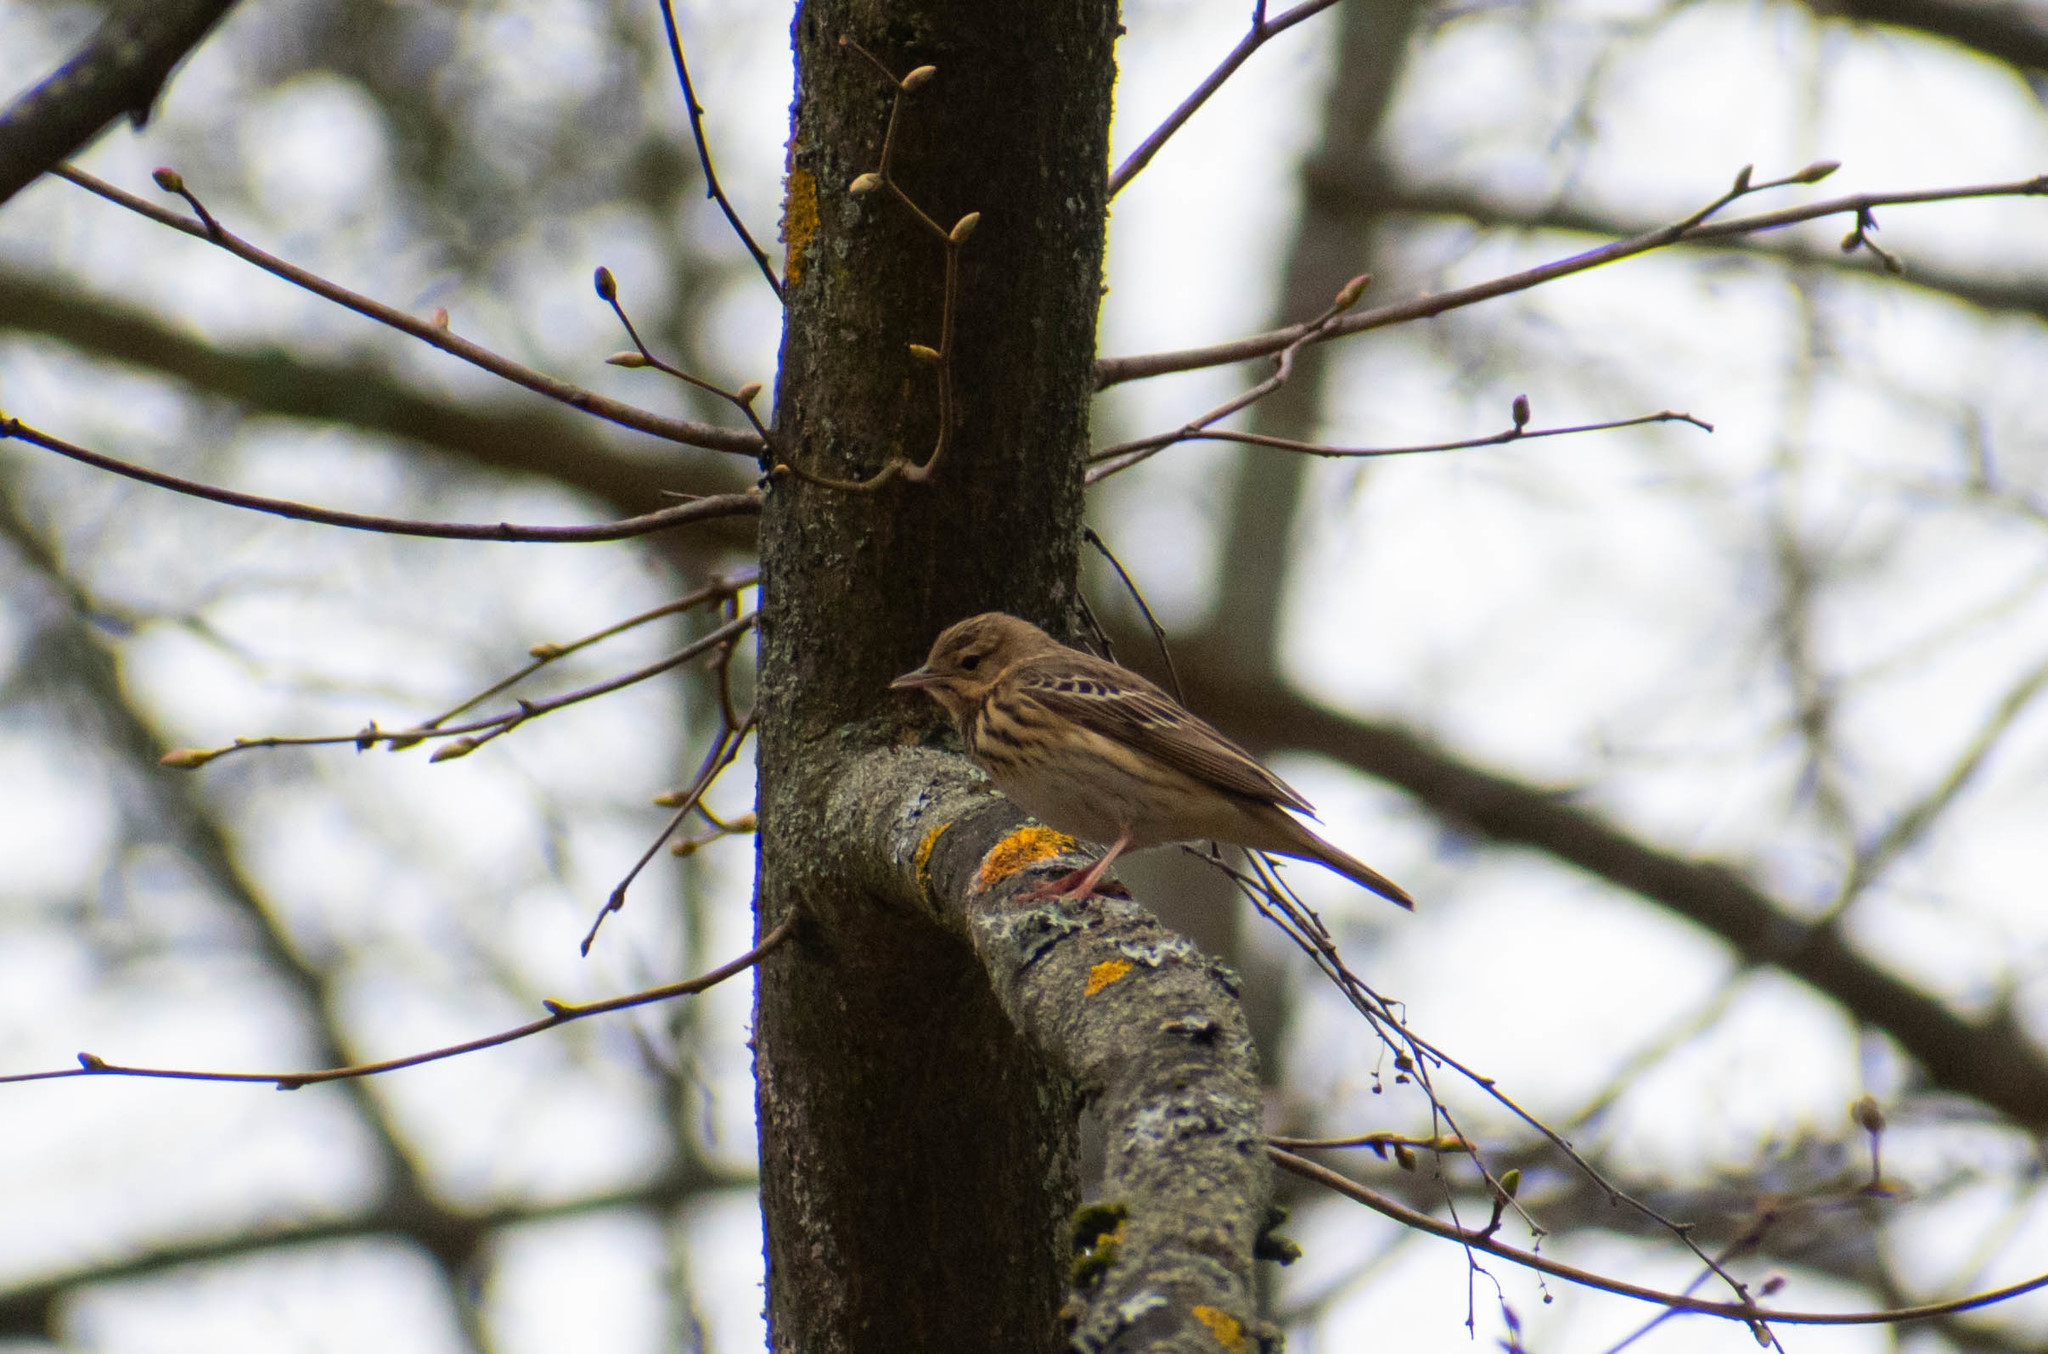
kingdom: Animalia
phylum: Chordata
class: Aves
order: Passeriformes
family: Motacillidae
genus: Anthus
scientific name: Anthus trivialis
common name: Tree pipit
